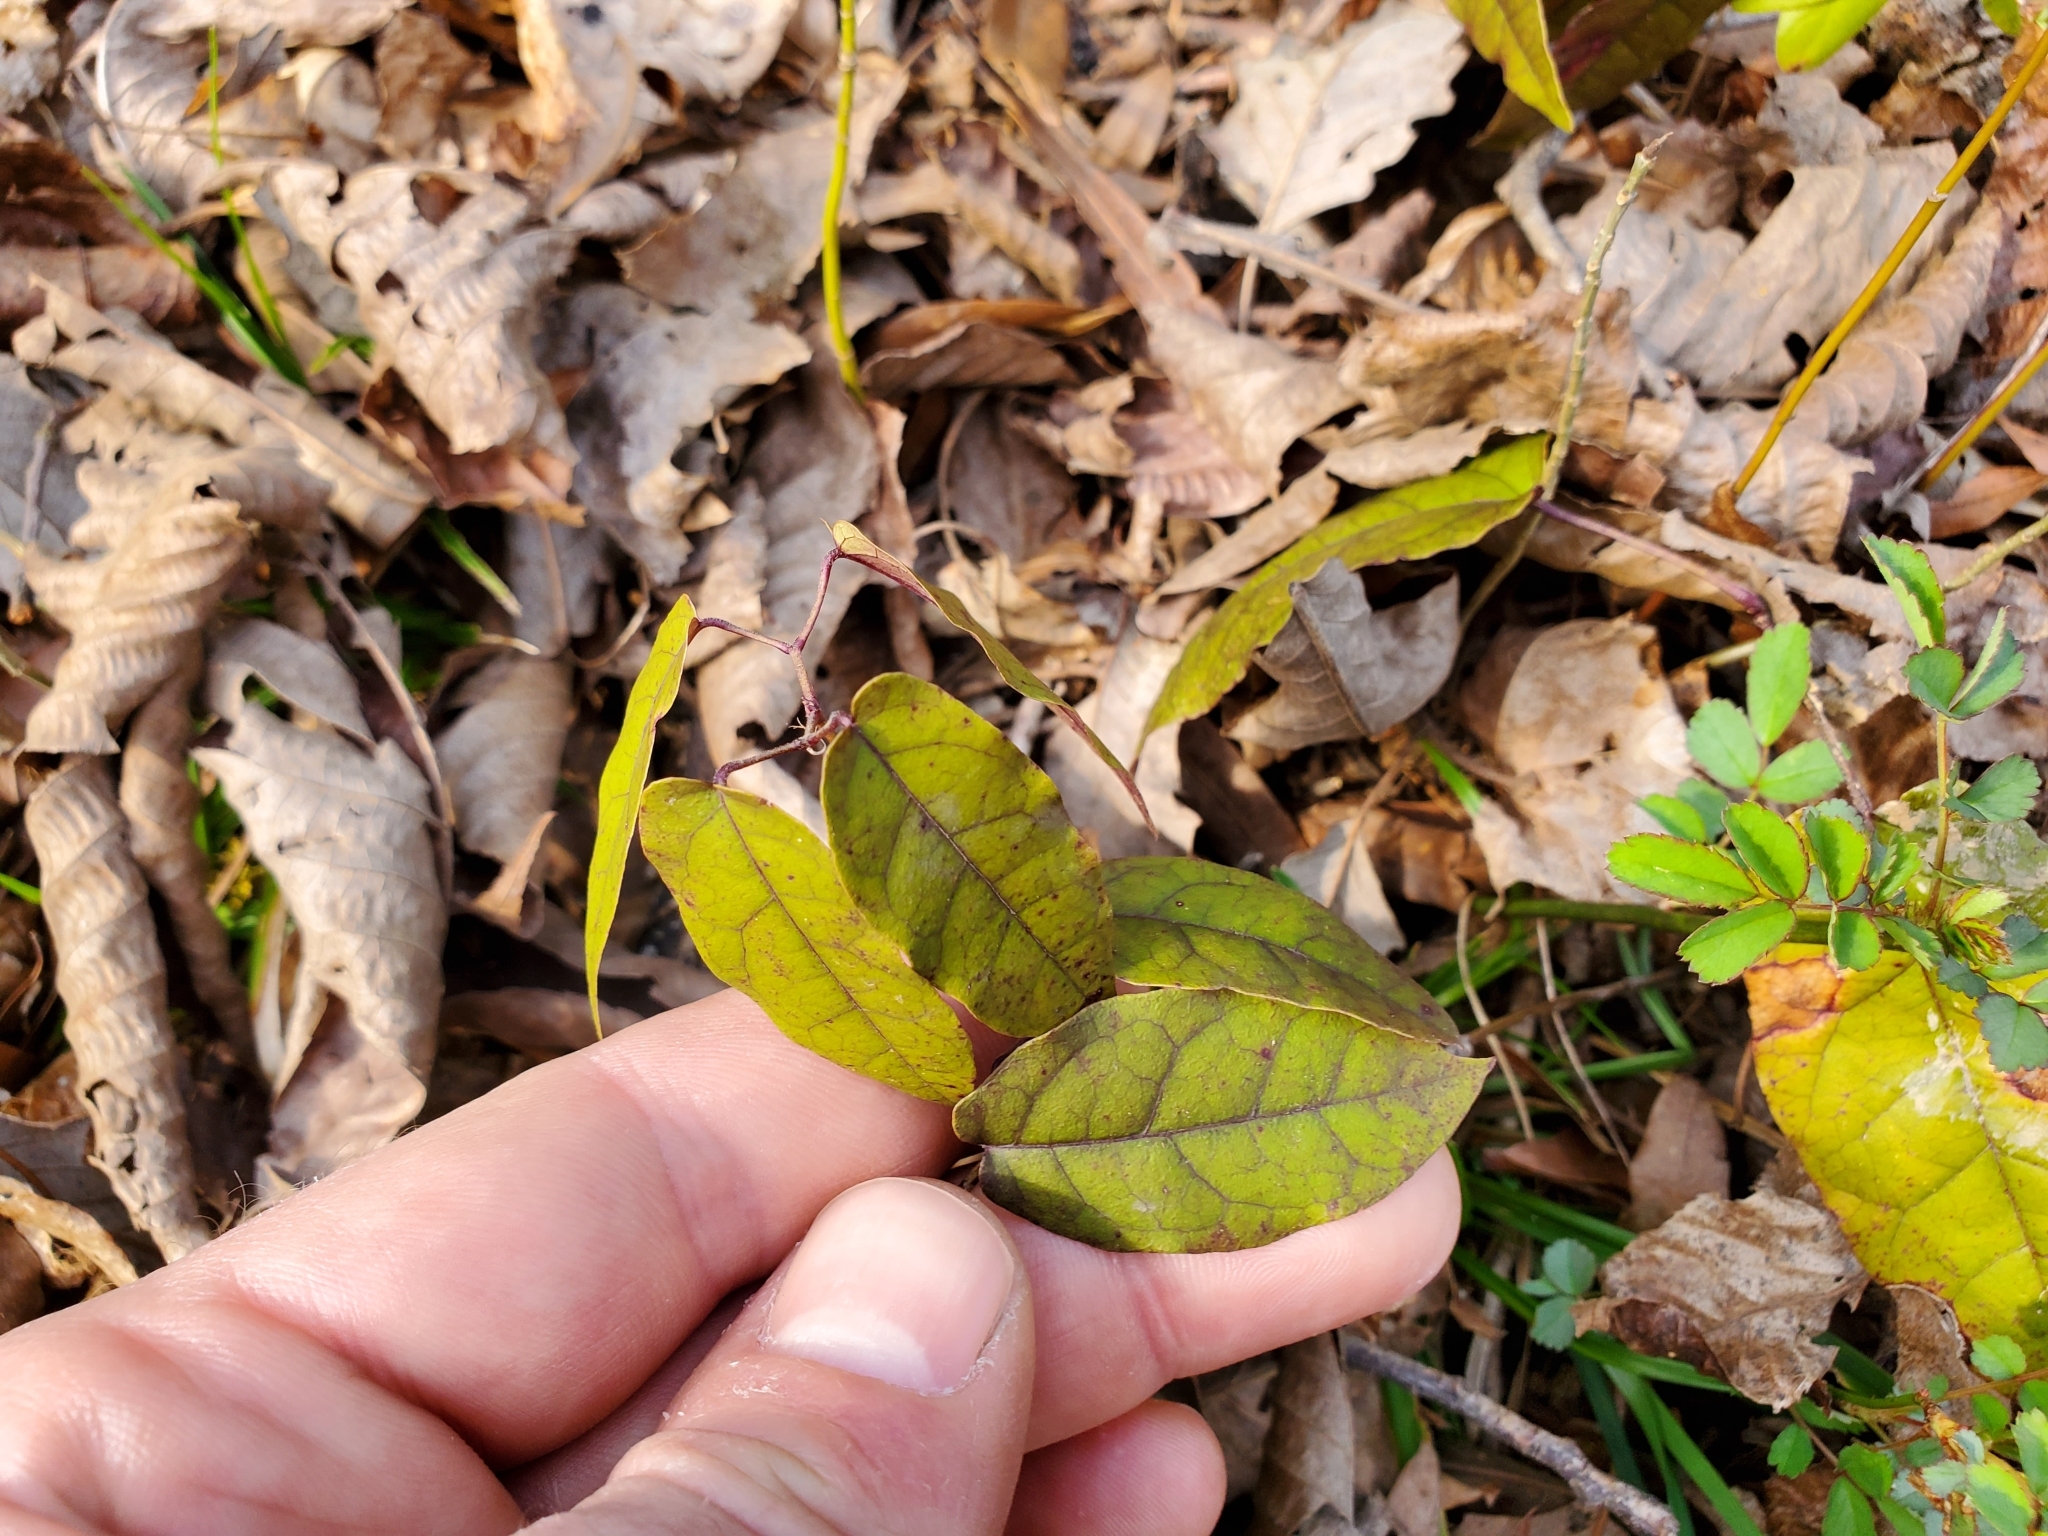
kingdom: Plantae
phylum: Tracheophyta
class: Magnoliopsida
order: Lamiales
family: Bignoniaceae
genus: Bignonia
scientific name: Bignonia capreolata
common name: Crossvine
